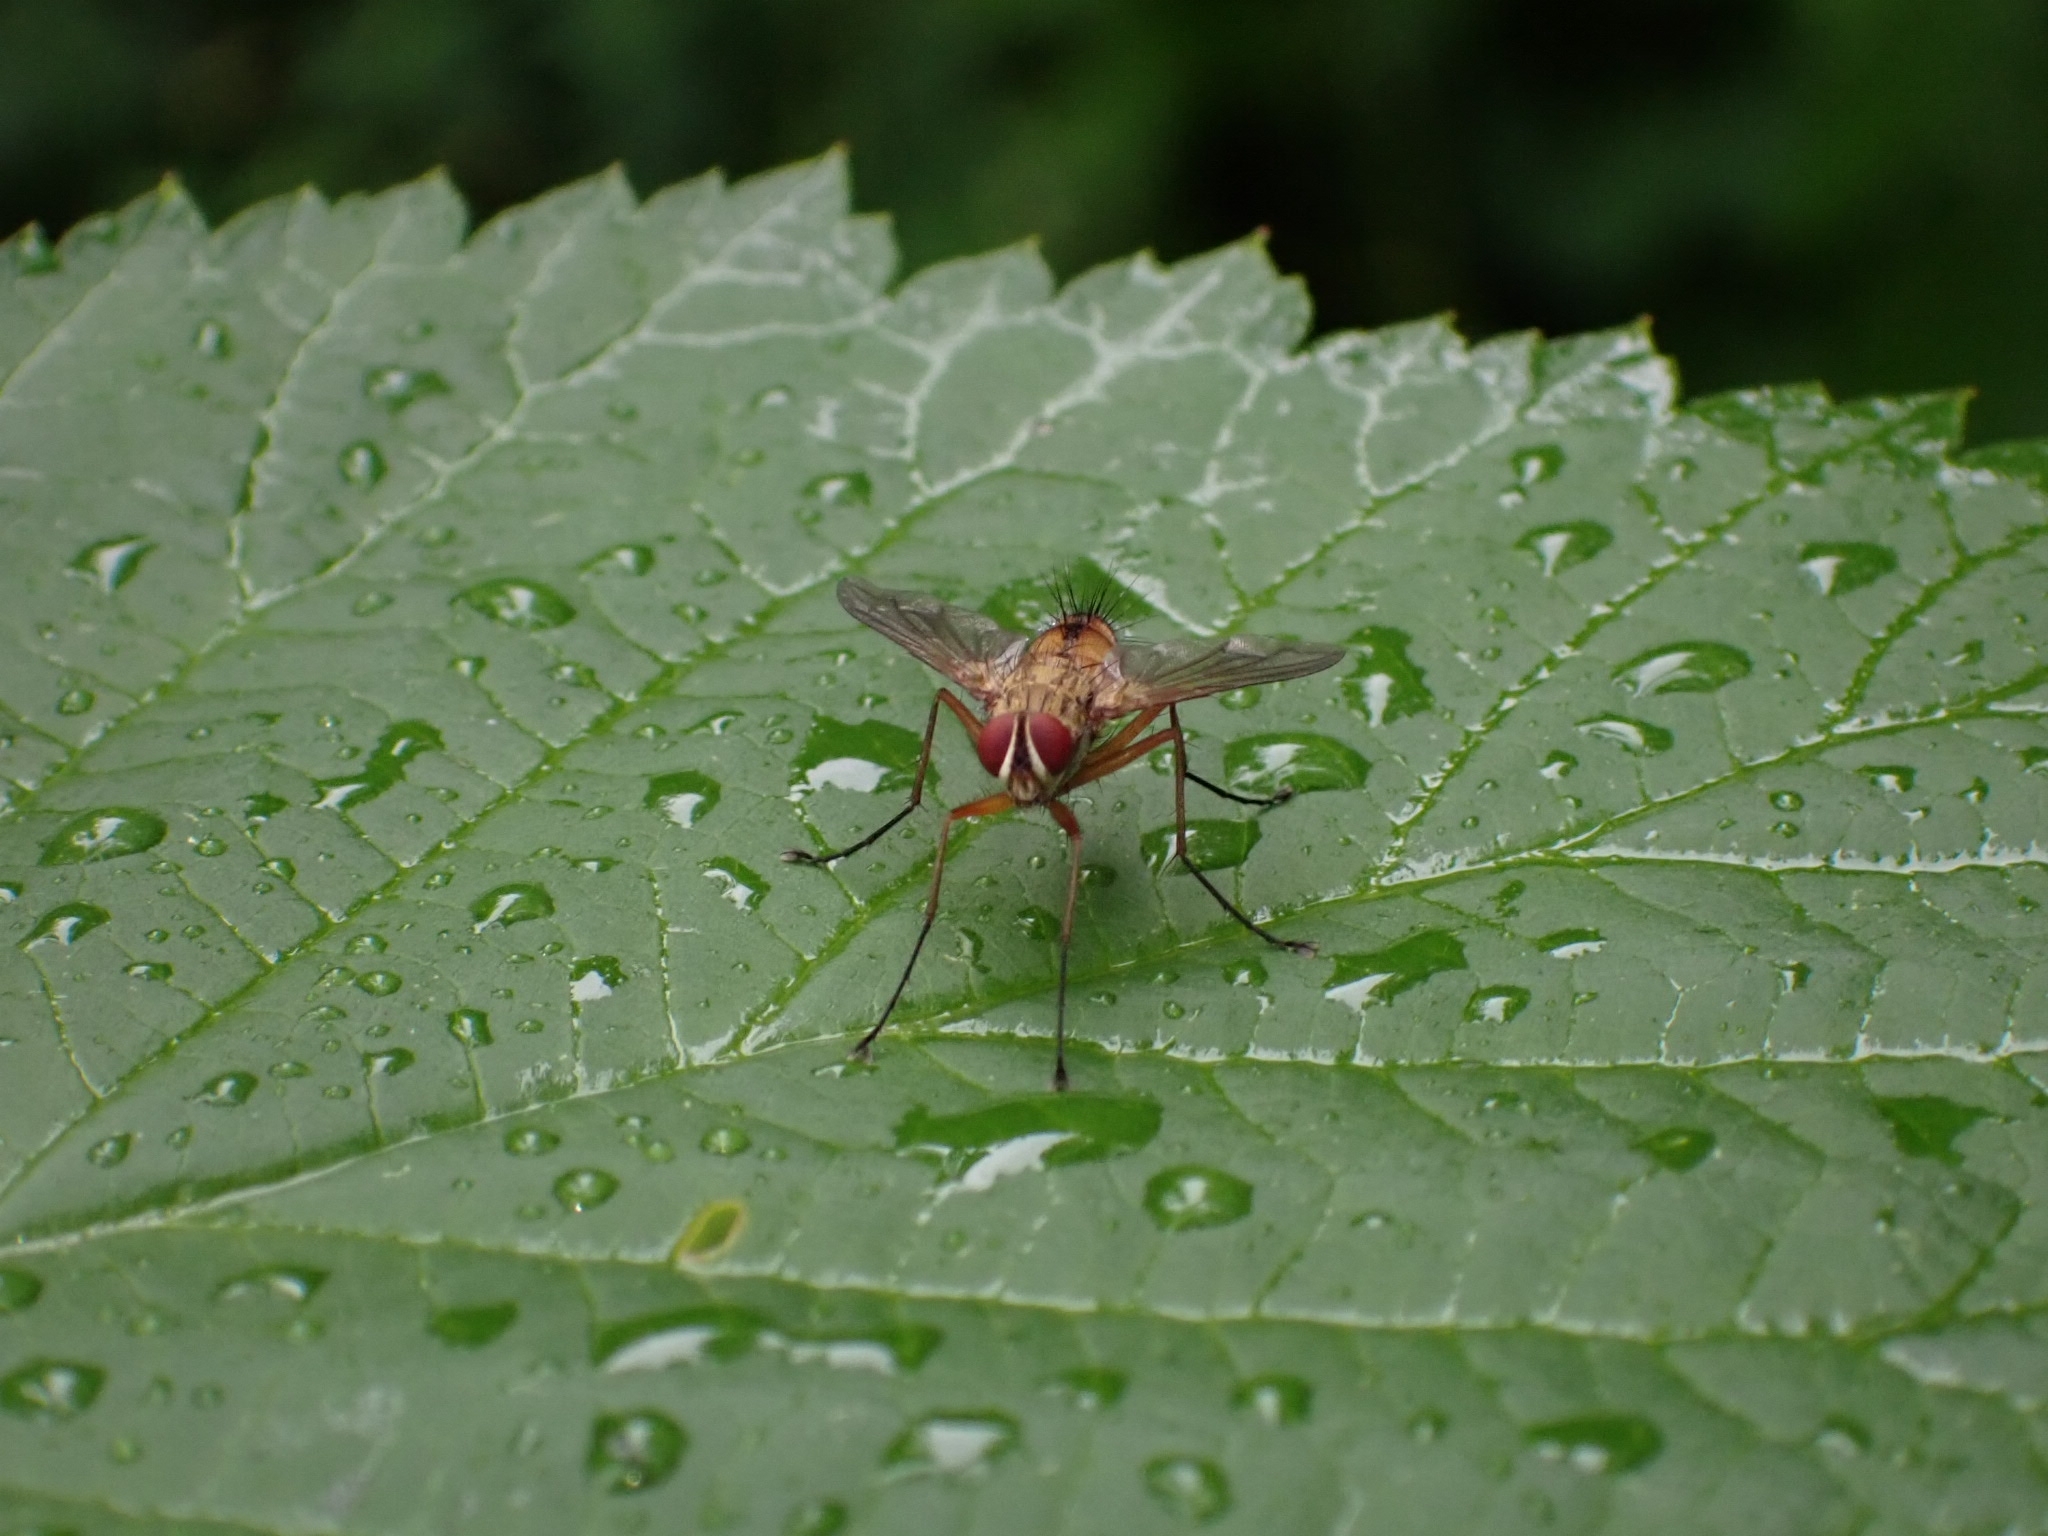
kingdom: Animalia
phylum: Arthropoda
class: Insecta
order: Diptera
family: Tachinidae
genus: Dexia
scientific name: Dexia vacua
